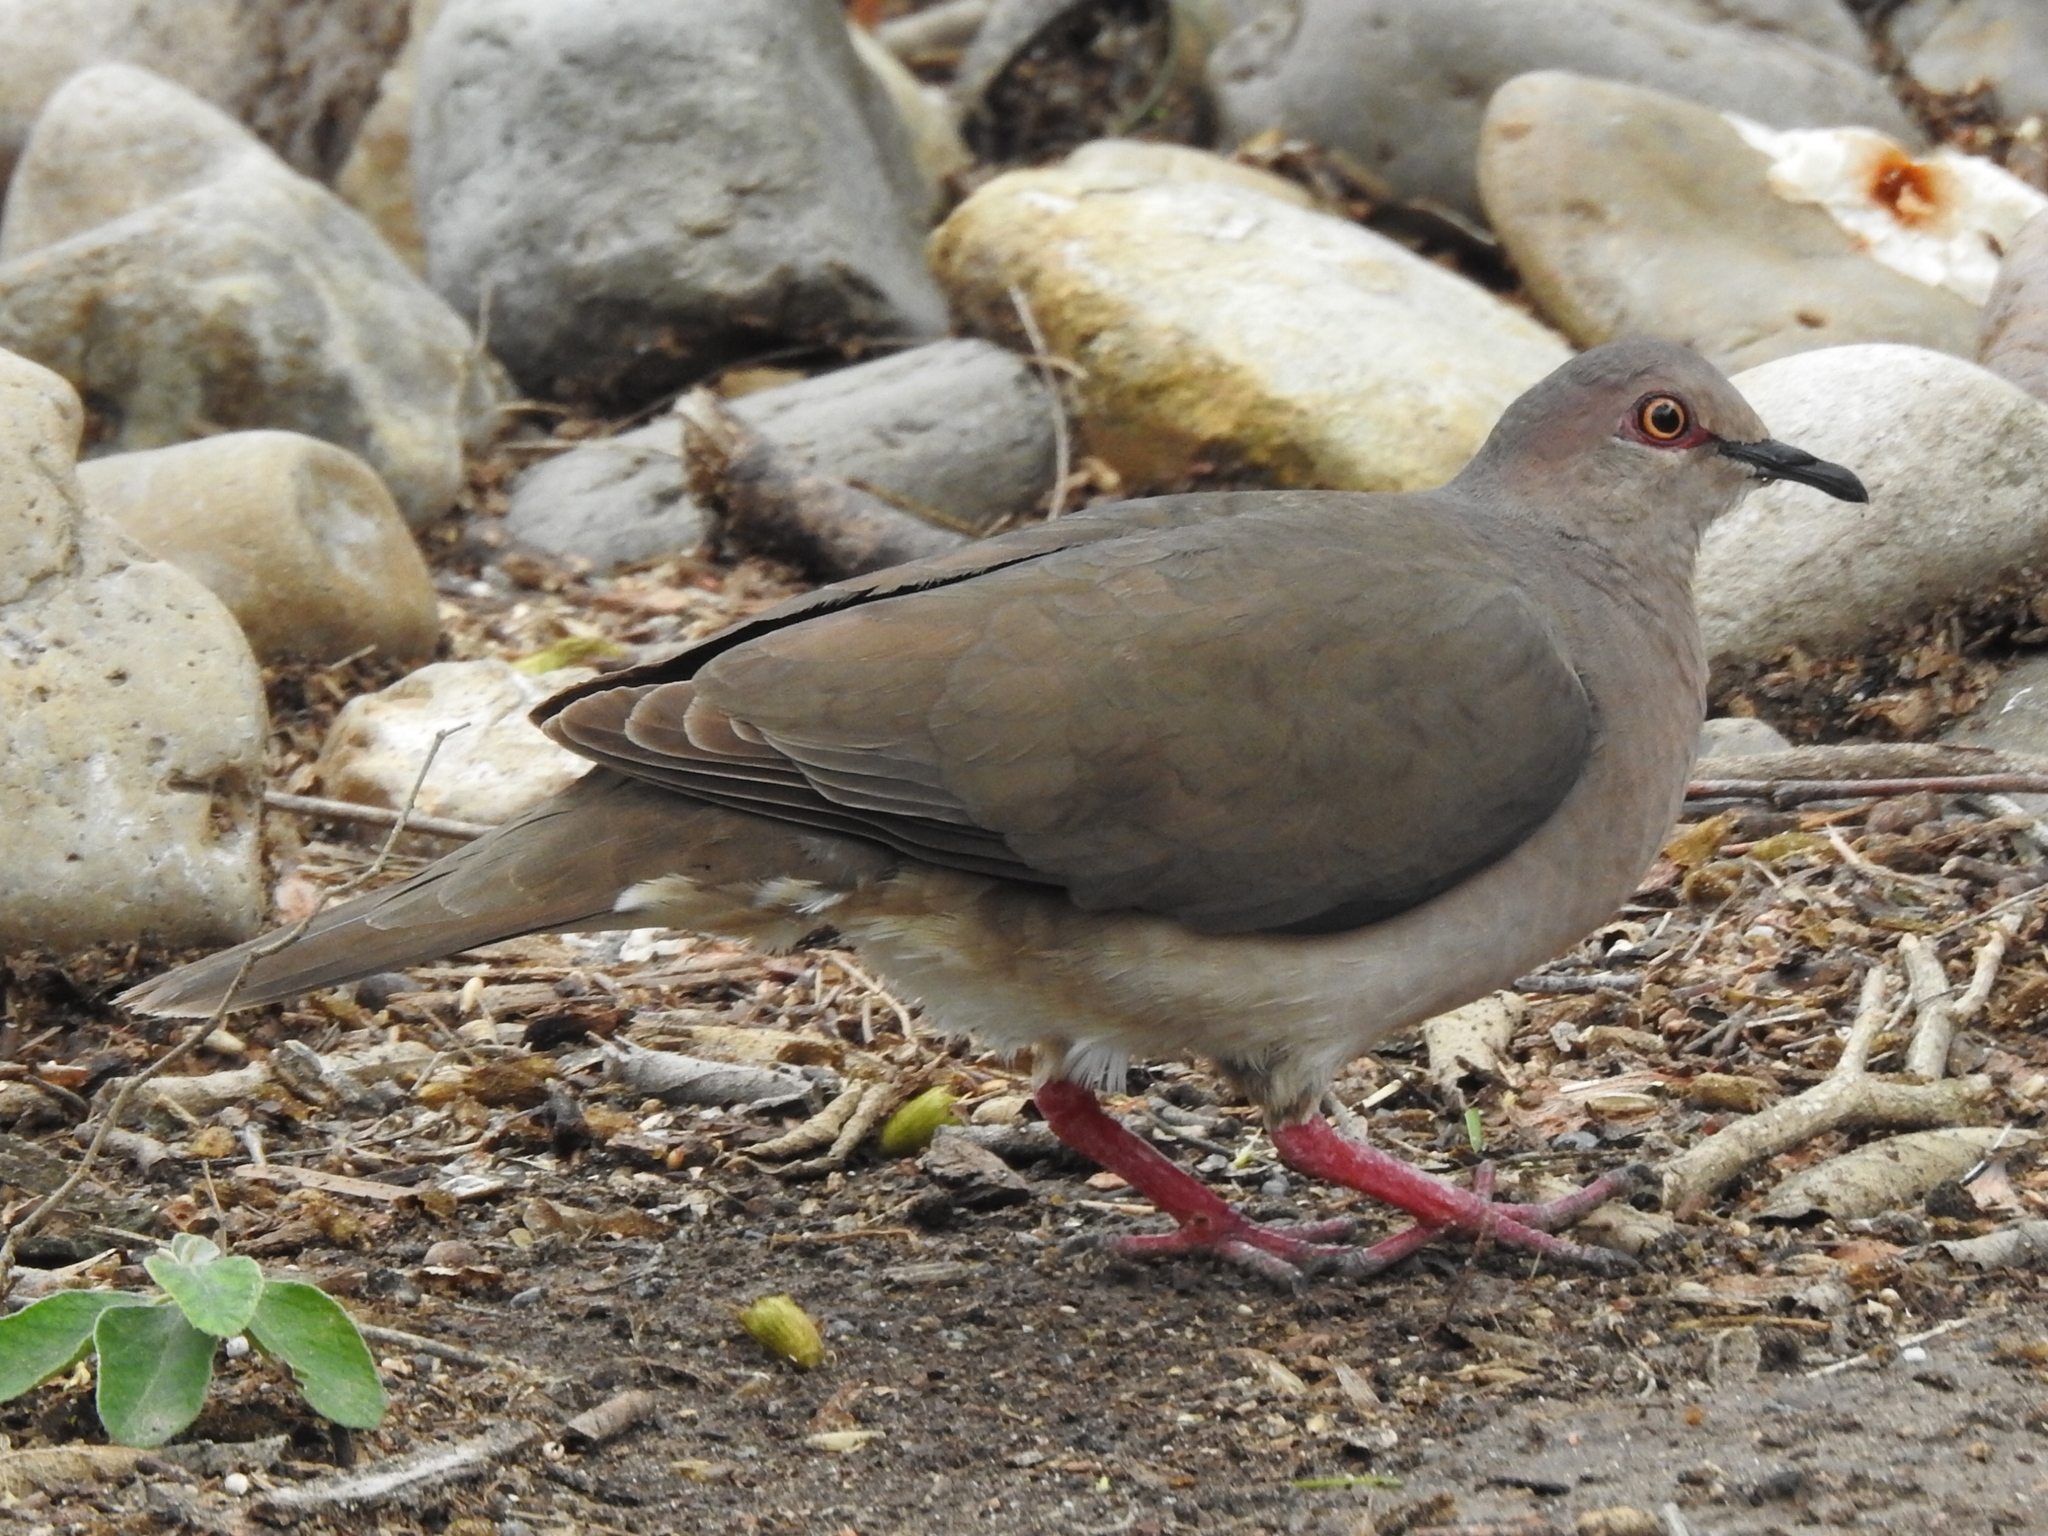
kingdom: Animalia
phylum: Chordata
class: Aves
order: Columbiformes
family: Columbidae
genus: Leptotila
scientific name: Leptotila verreauxi
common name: White-tipped dove
